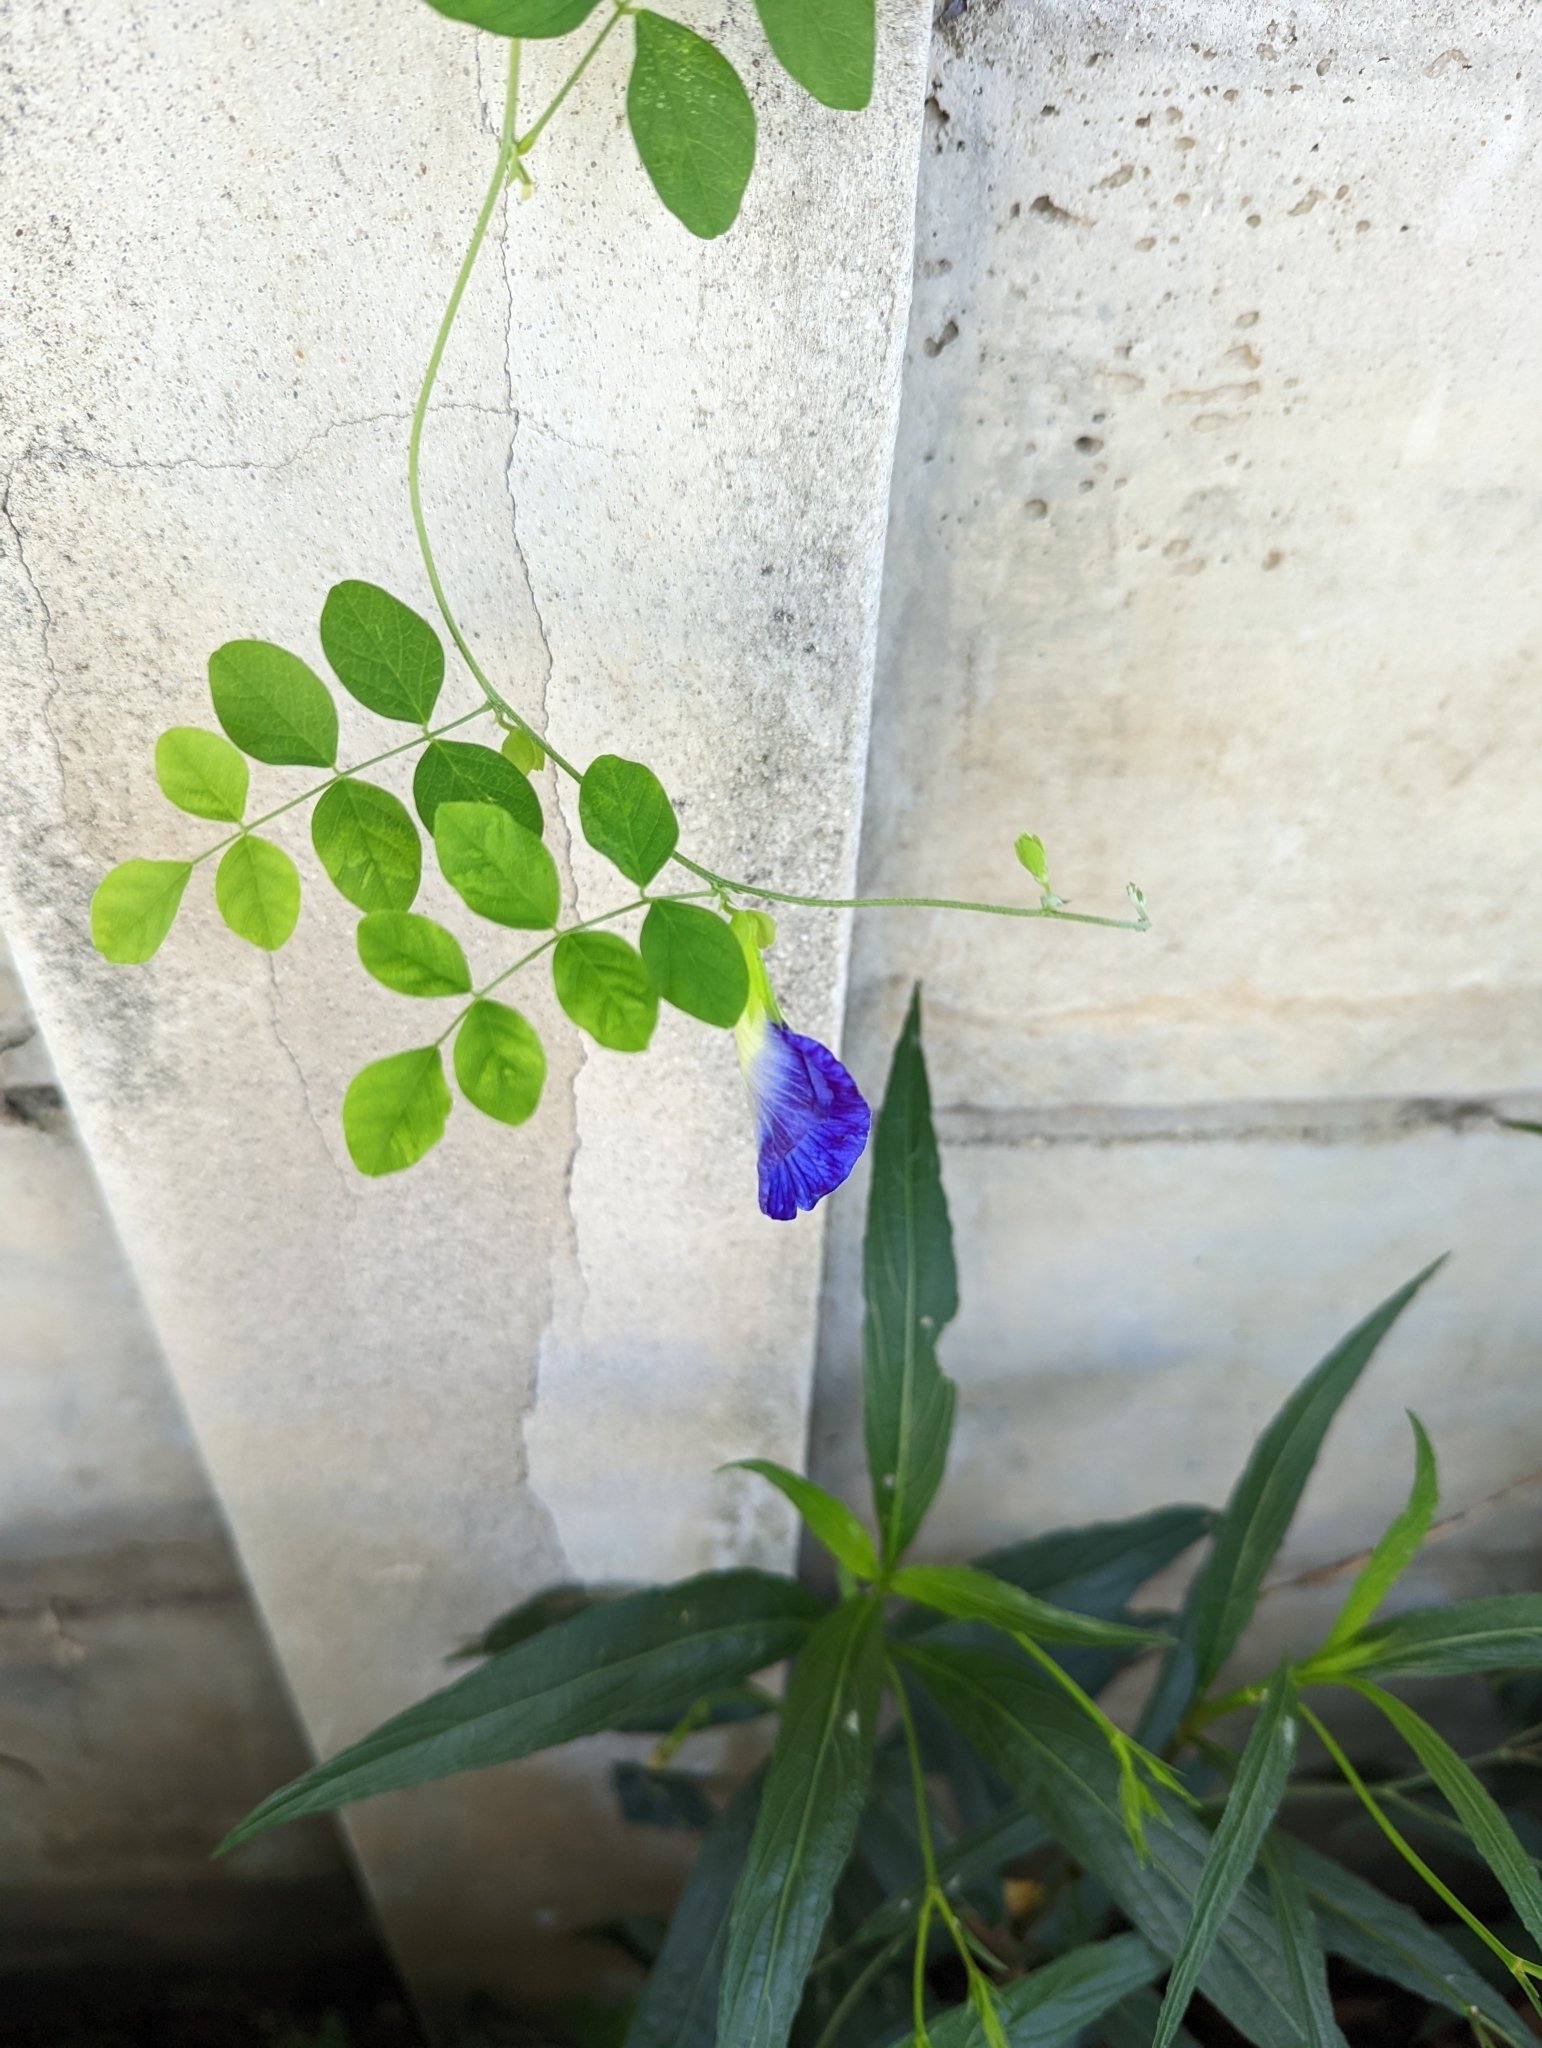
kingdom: Plantae
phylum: Tracheophyta
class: Magnoliopsida
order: Fabales
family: Fabaceae
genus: Clitoria
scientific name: Clitoria ternatea
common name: Asian pigeonwings
